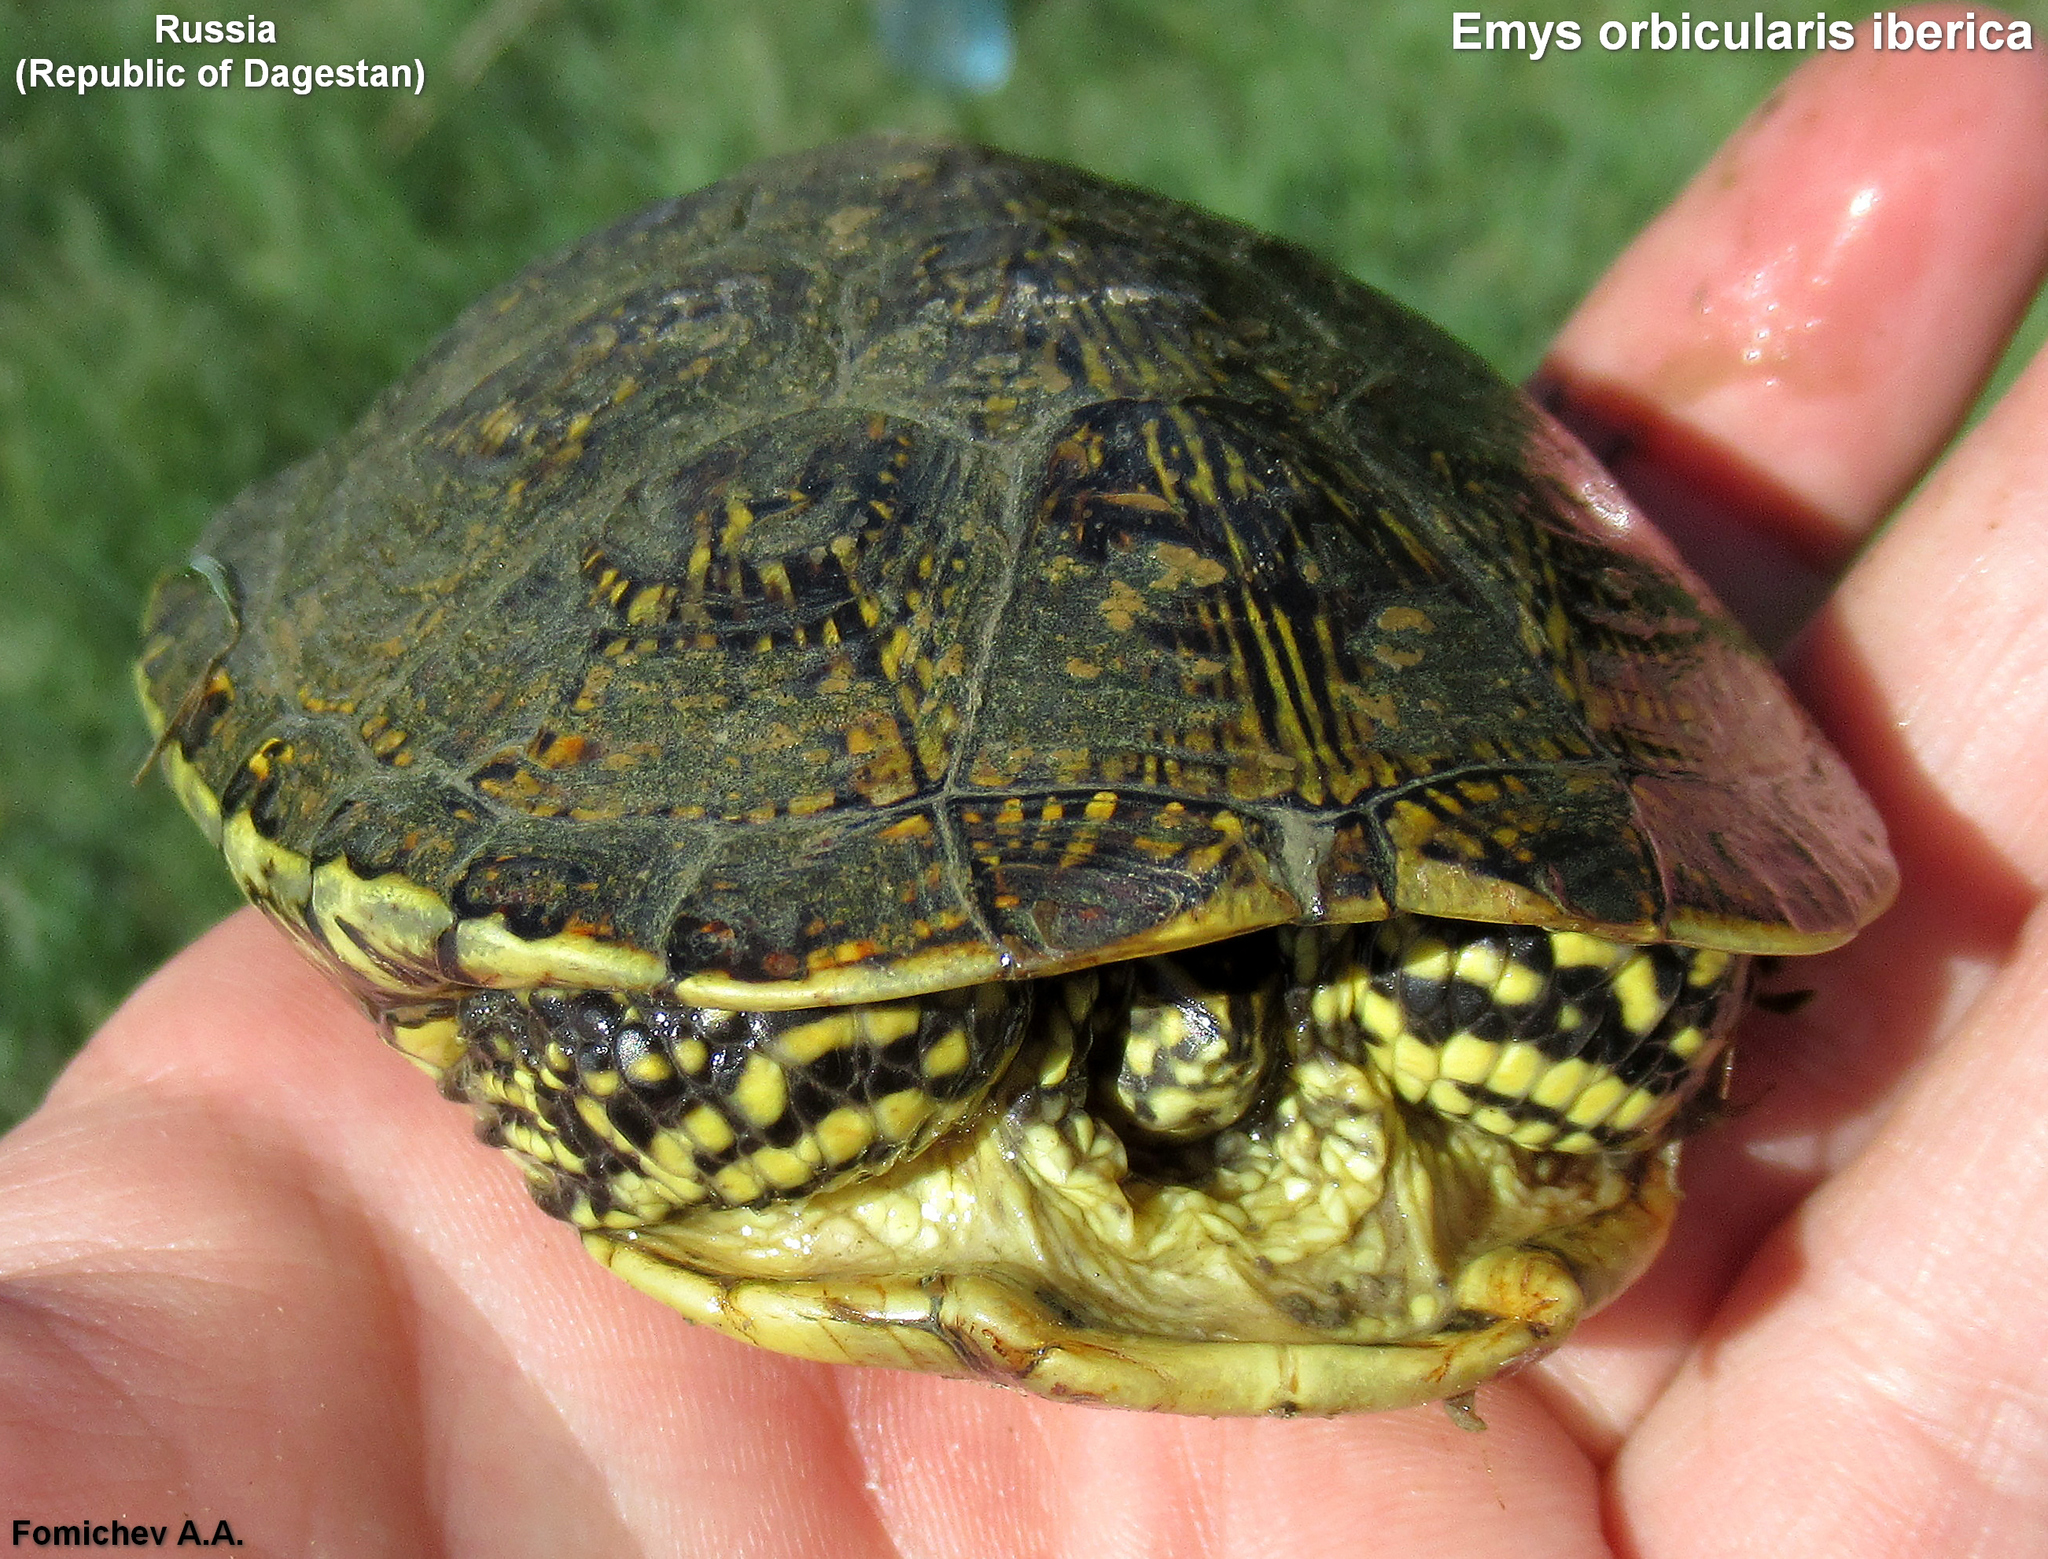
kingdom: Animalia
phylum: Chordata
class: Testudines
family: Emydidae
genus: Emys
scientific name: Emys orbicularis
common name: European pond turtle
